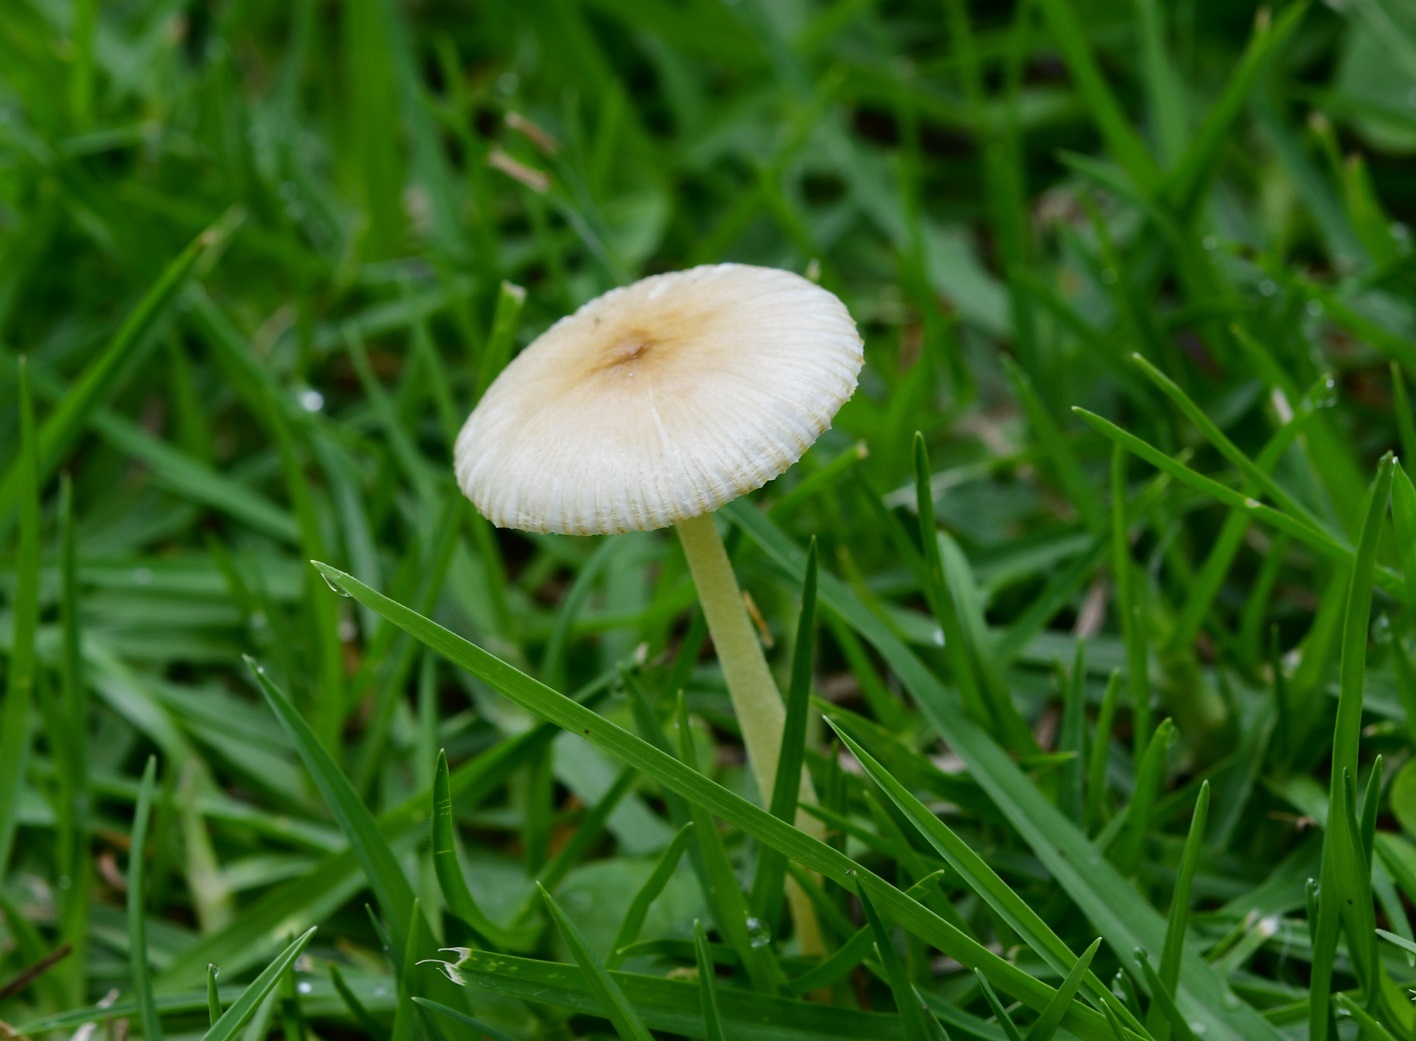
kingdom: Fungi
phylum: Basidiomycota
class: Agaricomycetes
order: Agaricales
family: Bolbitiaceae
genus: Bolbitius
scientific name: Bolbitius titubans
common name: Yellow fieldcap
